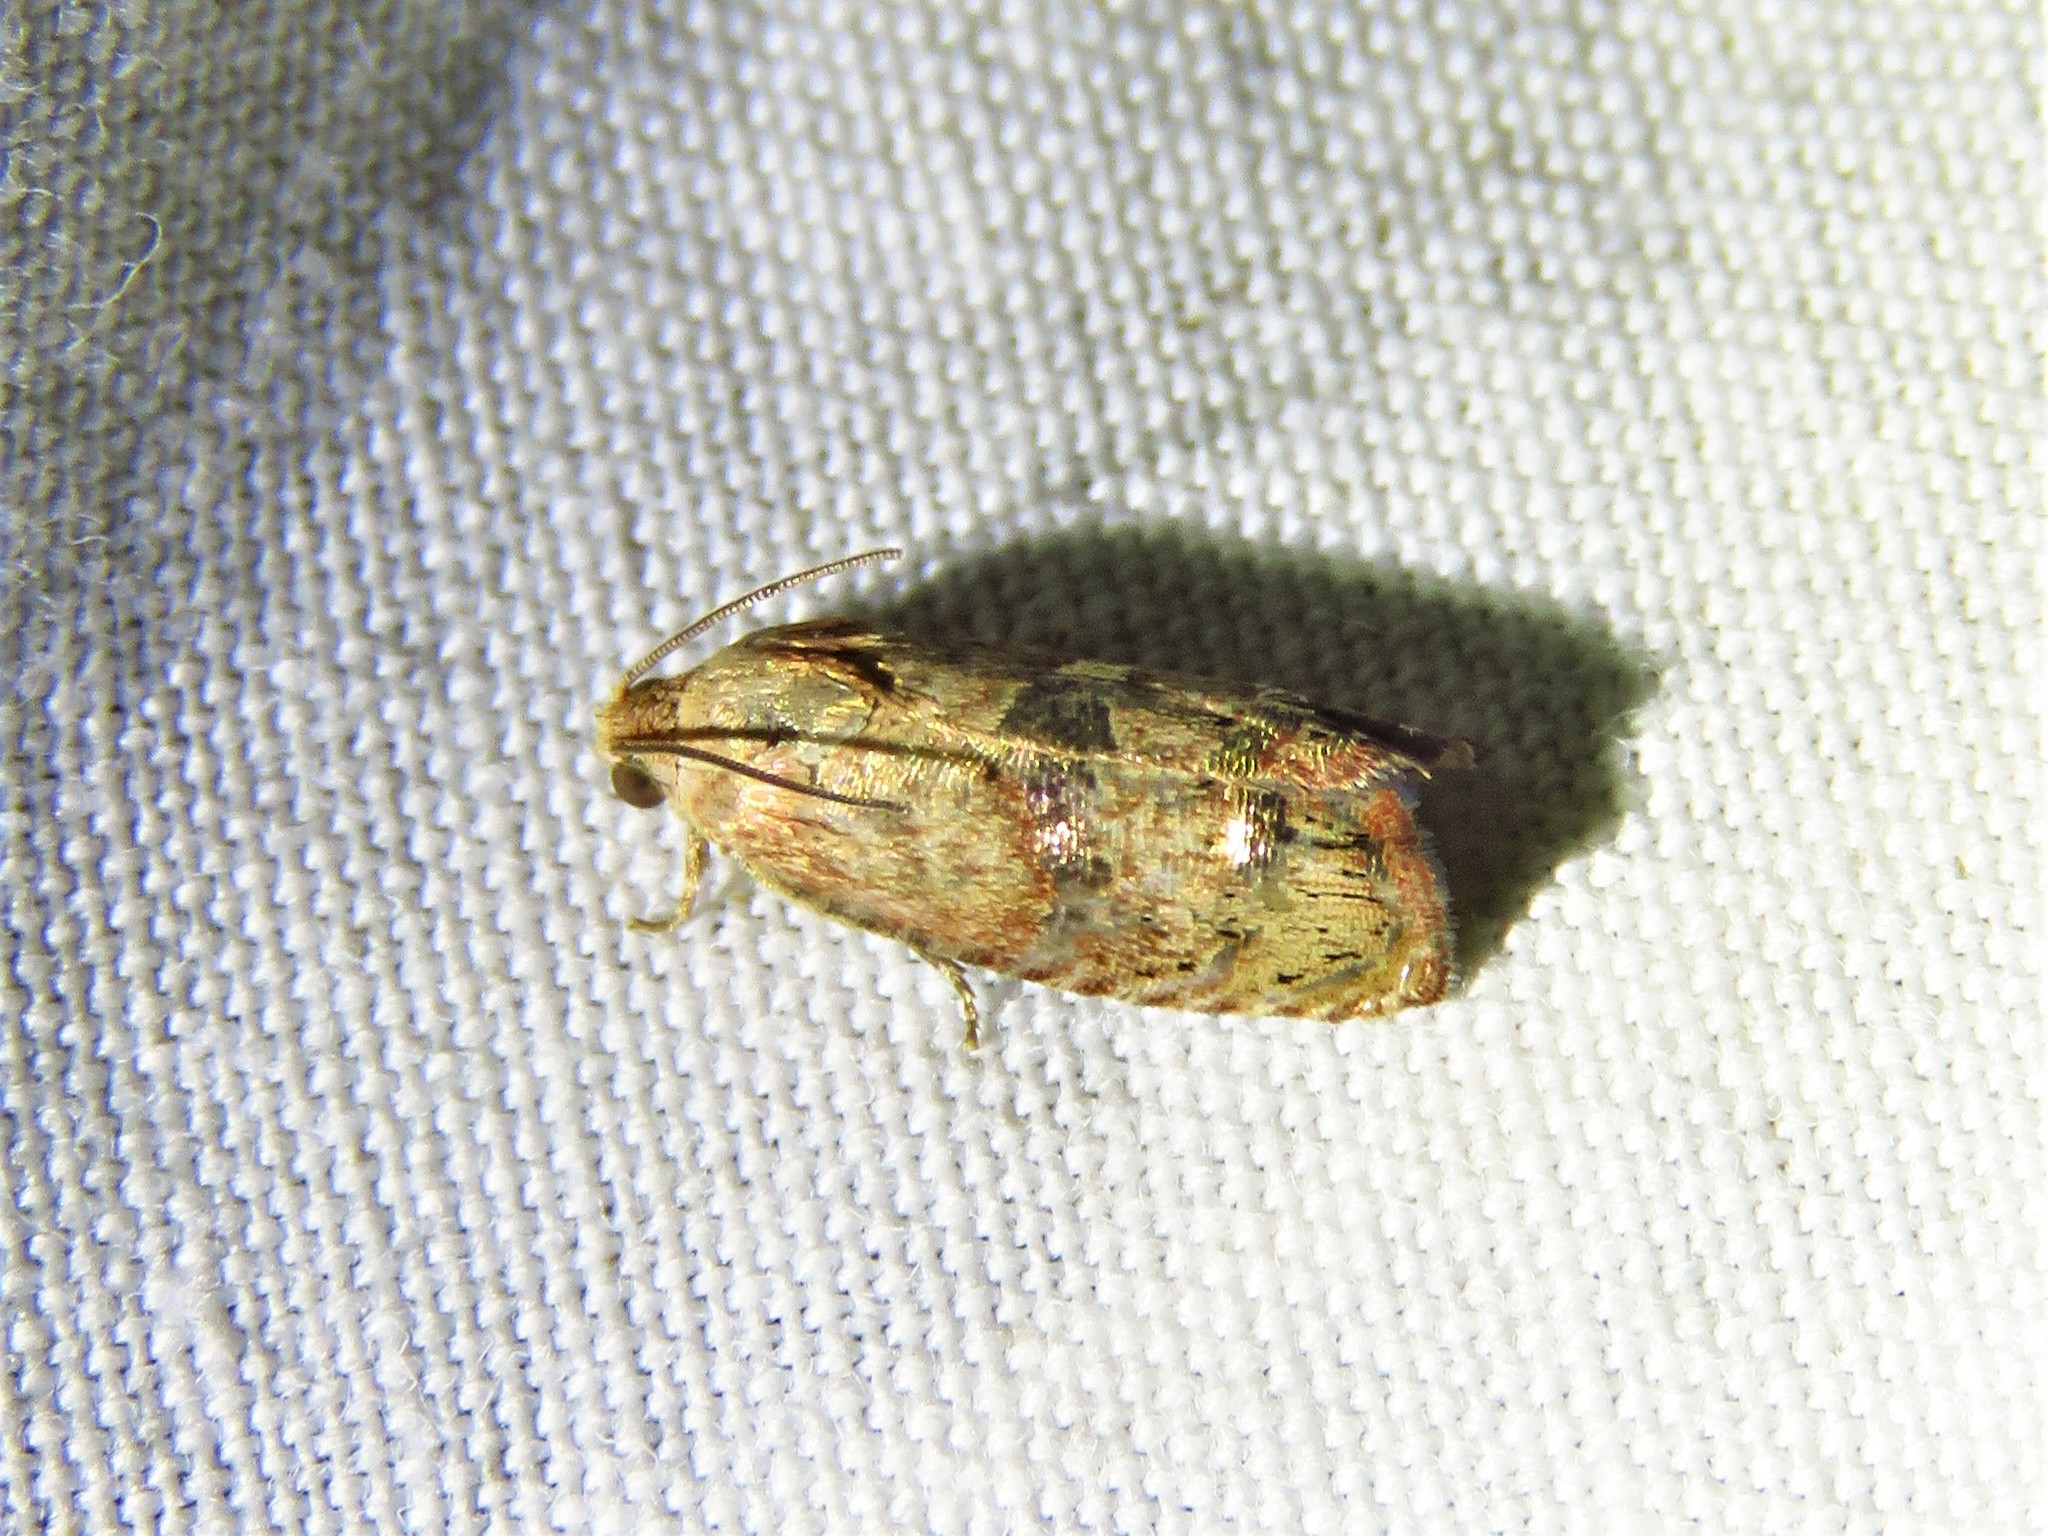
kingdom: Animalia
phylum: Arthropoda
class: Insecta
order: Lepidoptera
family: Tortricidae
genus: Cydia
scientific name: Cydia latiferreana
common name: Filbertworm moth
